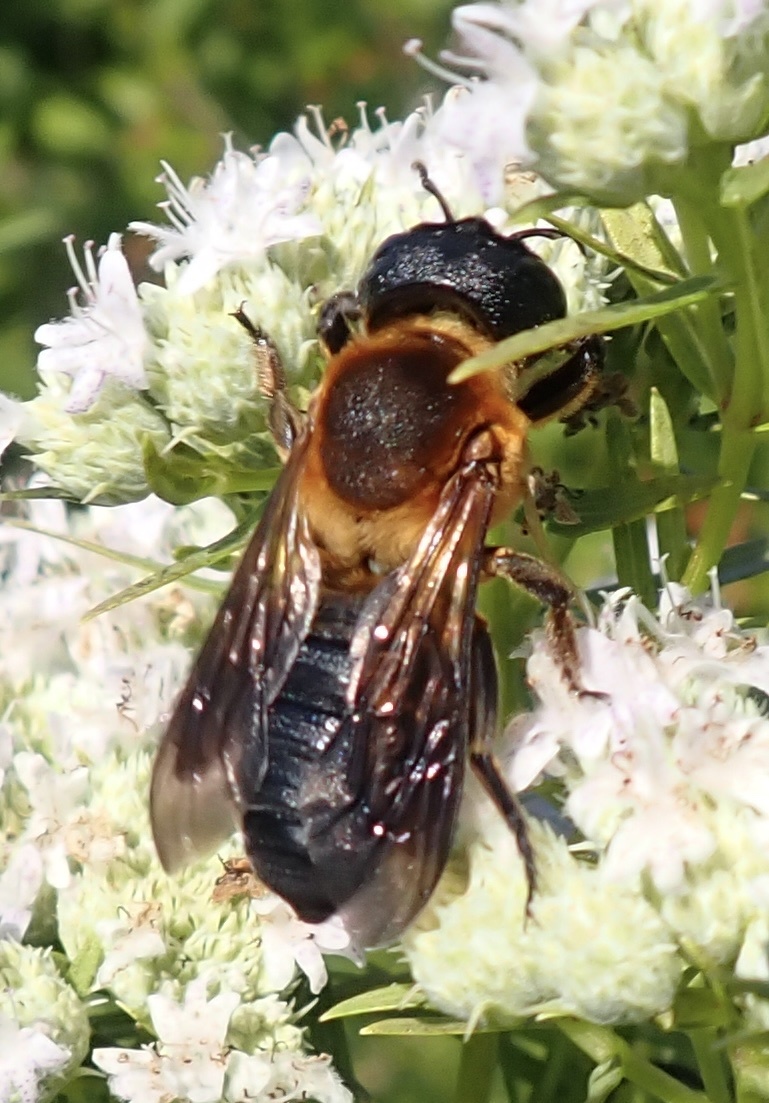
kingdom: Animalia
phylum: Arthropoda
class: Insecta
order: Hymenoptera
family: Megachilidae
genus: Megachile
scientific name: Megachile sculpturalis
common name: Sculptured resin bee
